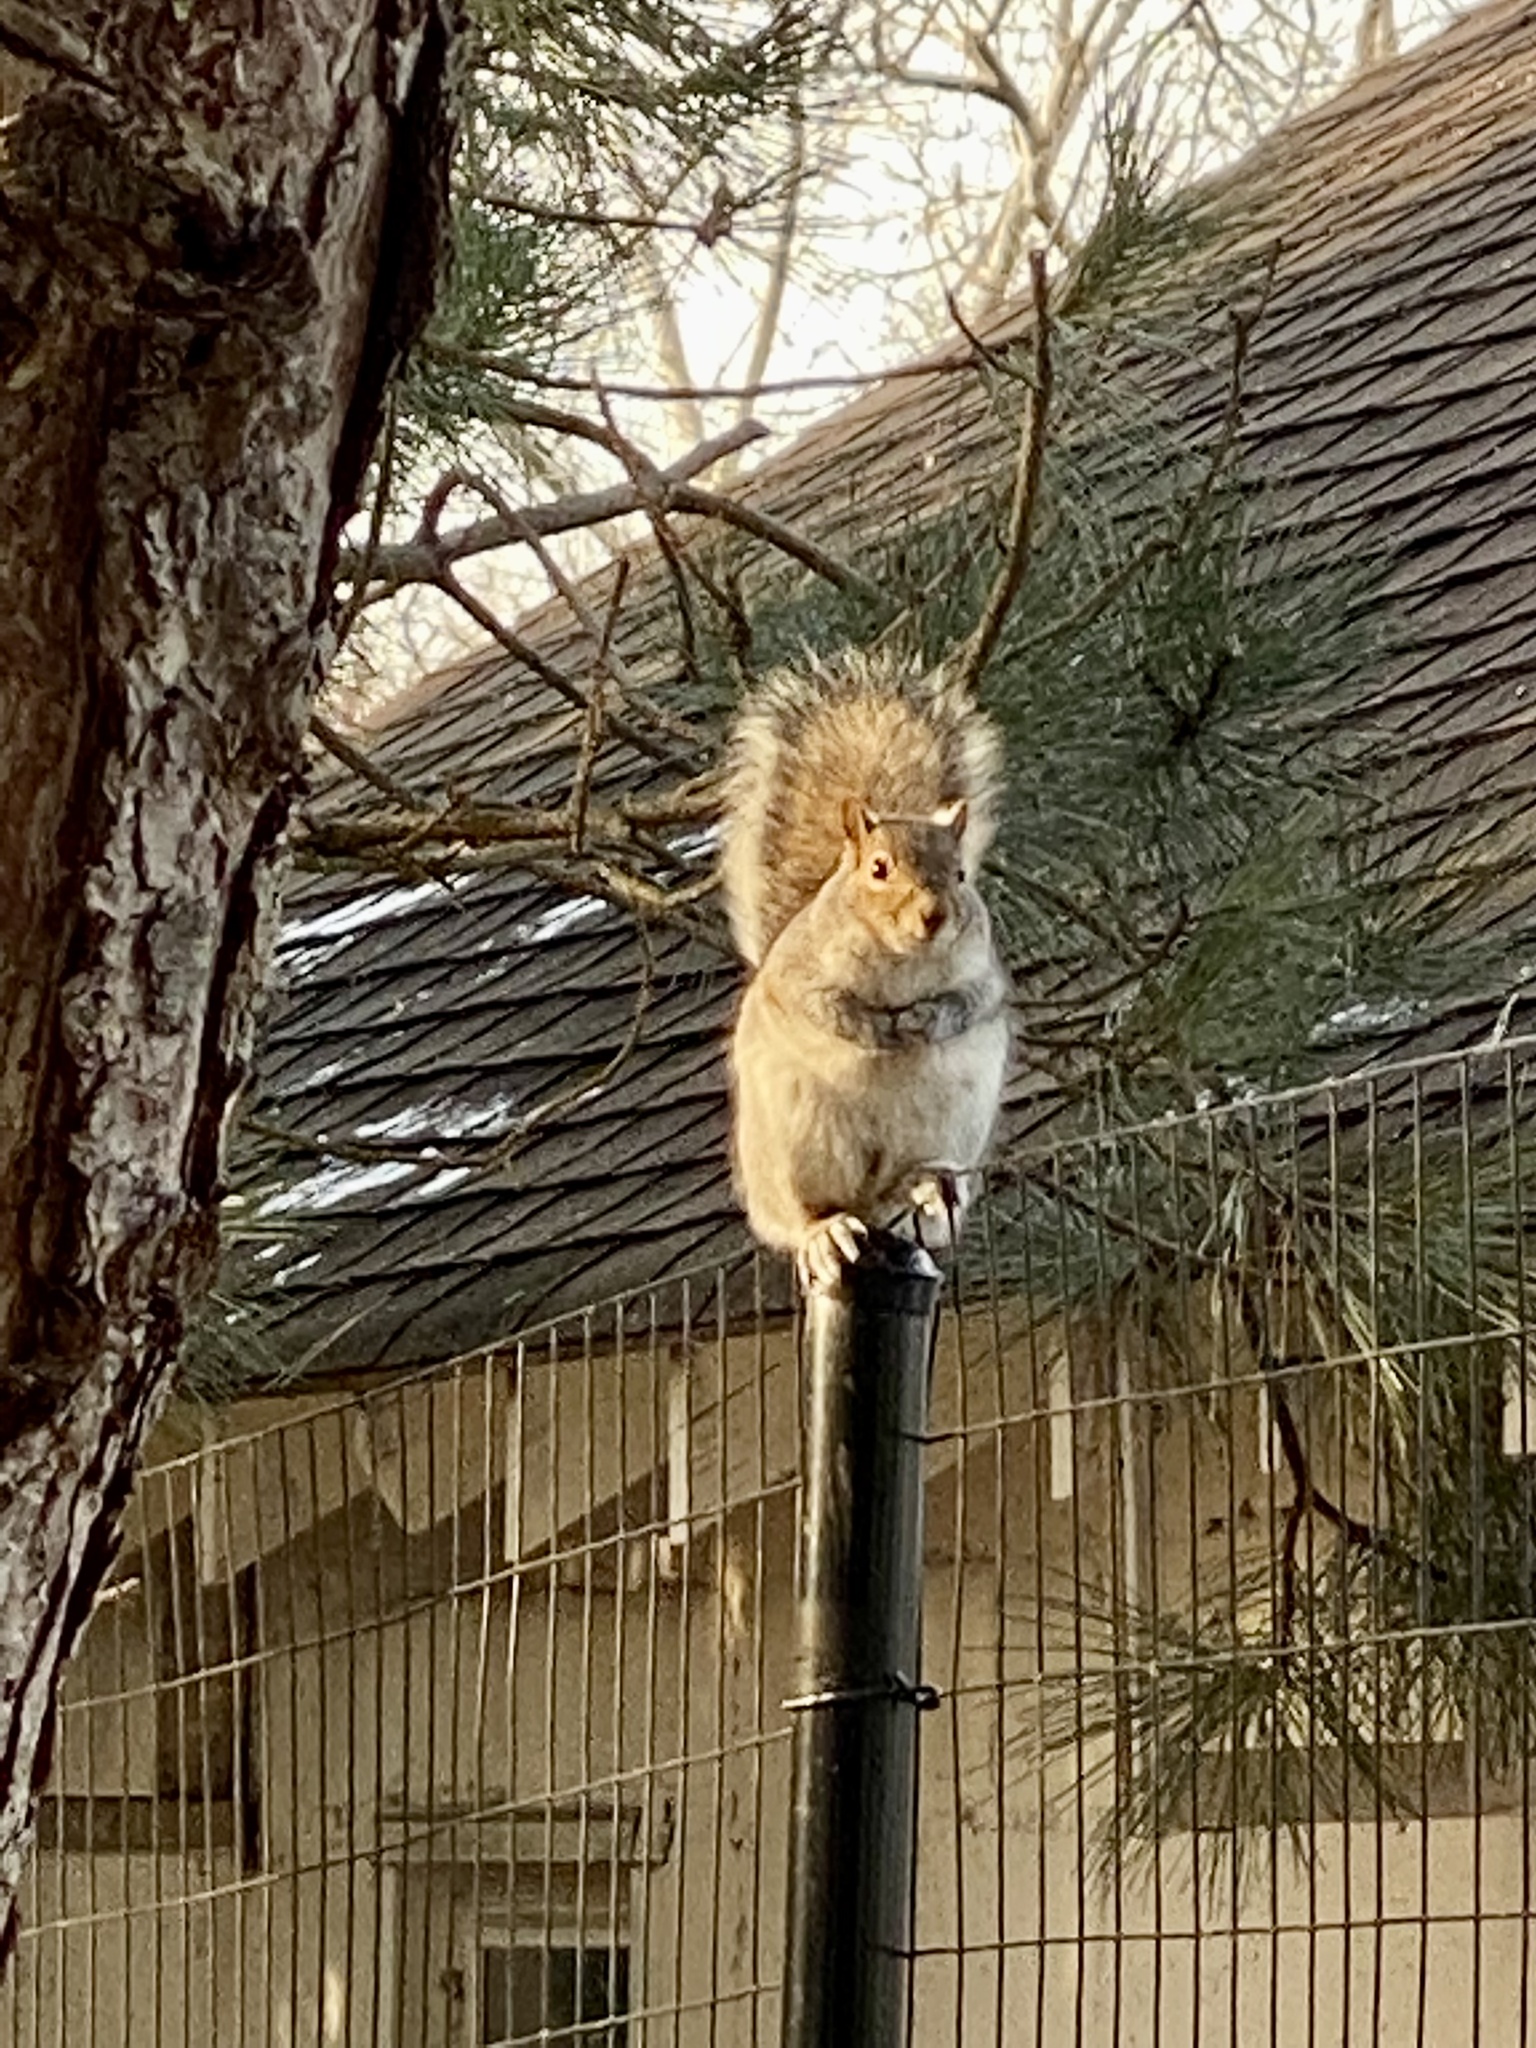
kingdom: Animalia
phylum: Chordata
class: Mammalia
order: Rodentia
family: Sciuridae
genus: Sciurus
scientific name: Sciurus carolinensis
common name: Eastern gray squirrel
